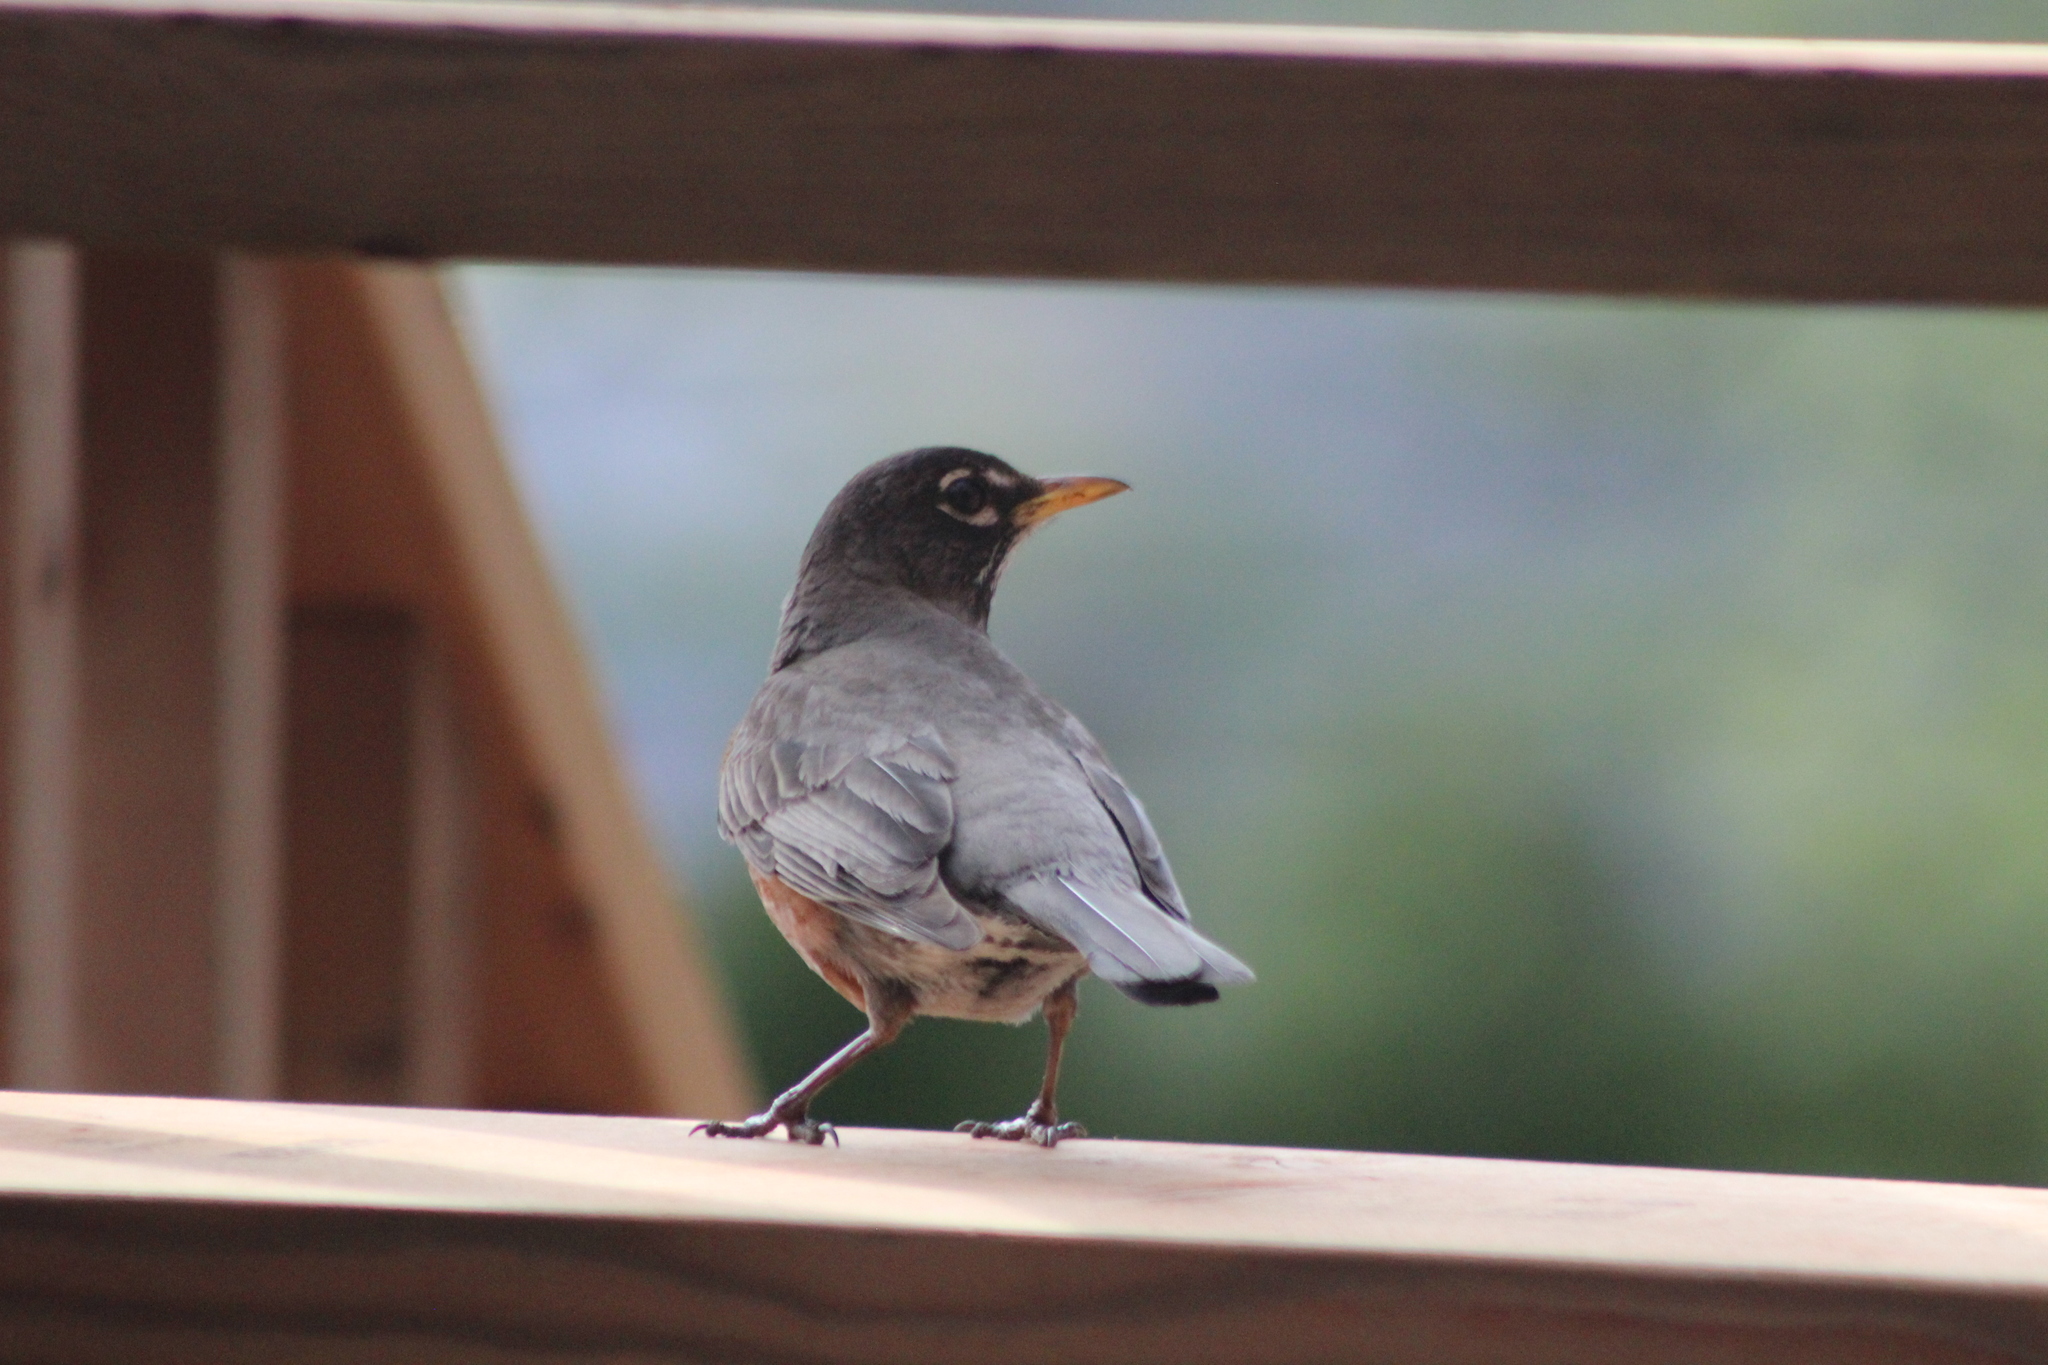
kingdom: Animalia
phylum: Chordata
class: Aves
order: Passeriformes
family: Turdidae
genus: Turdus
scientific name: Turdus migratorius
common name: American robin
